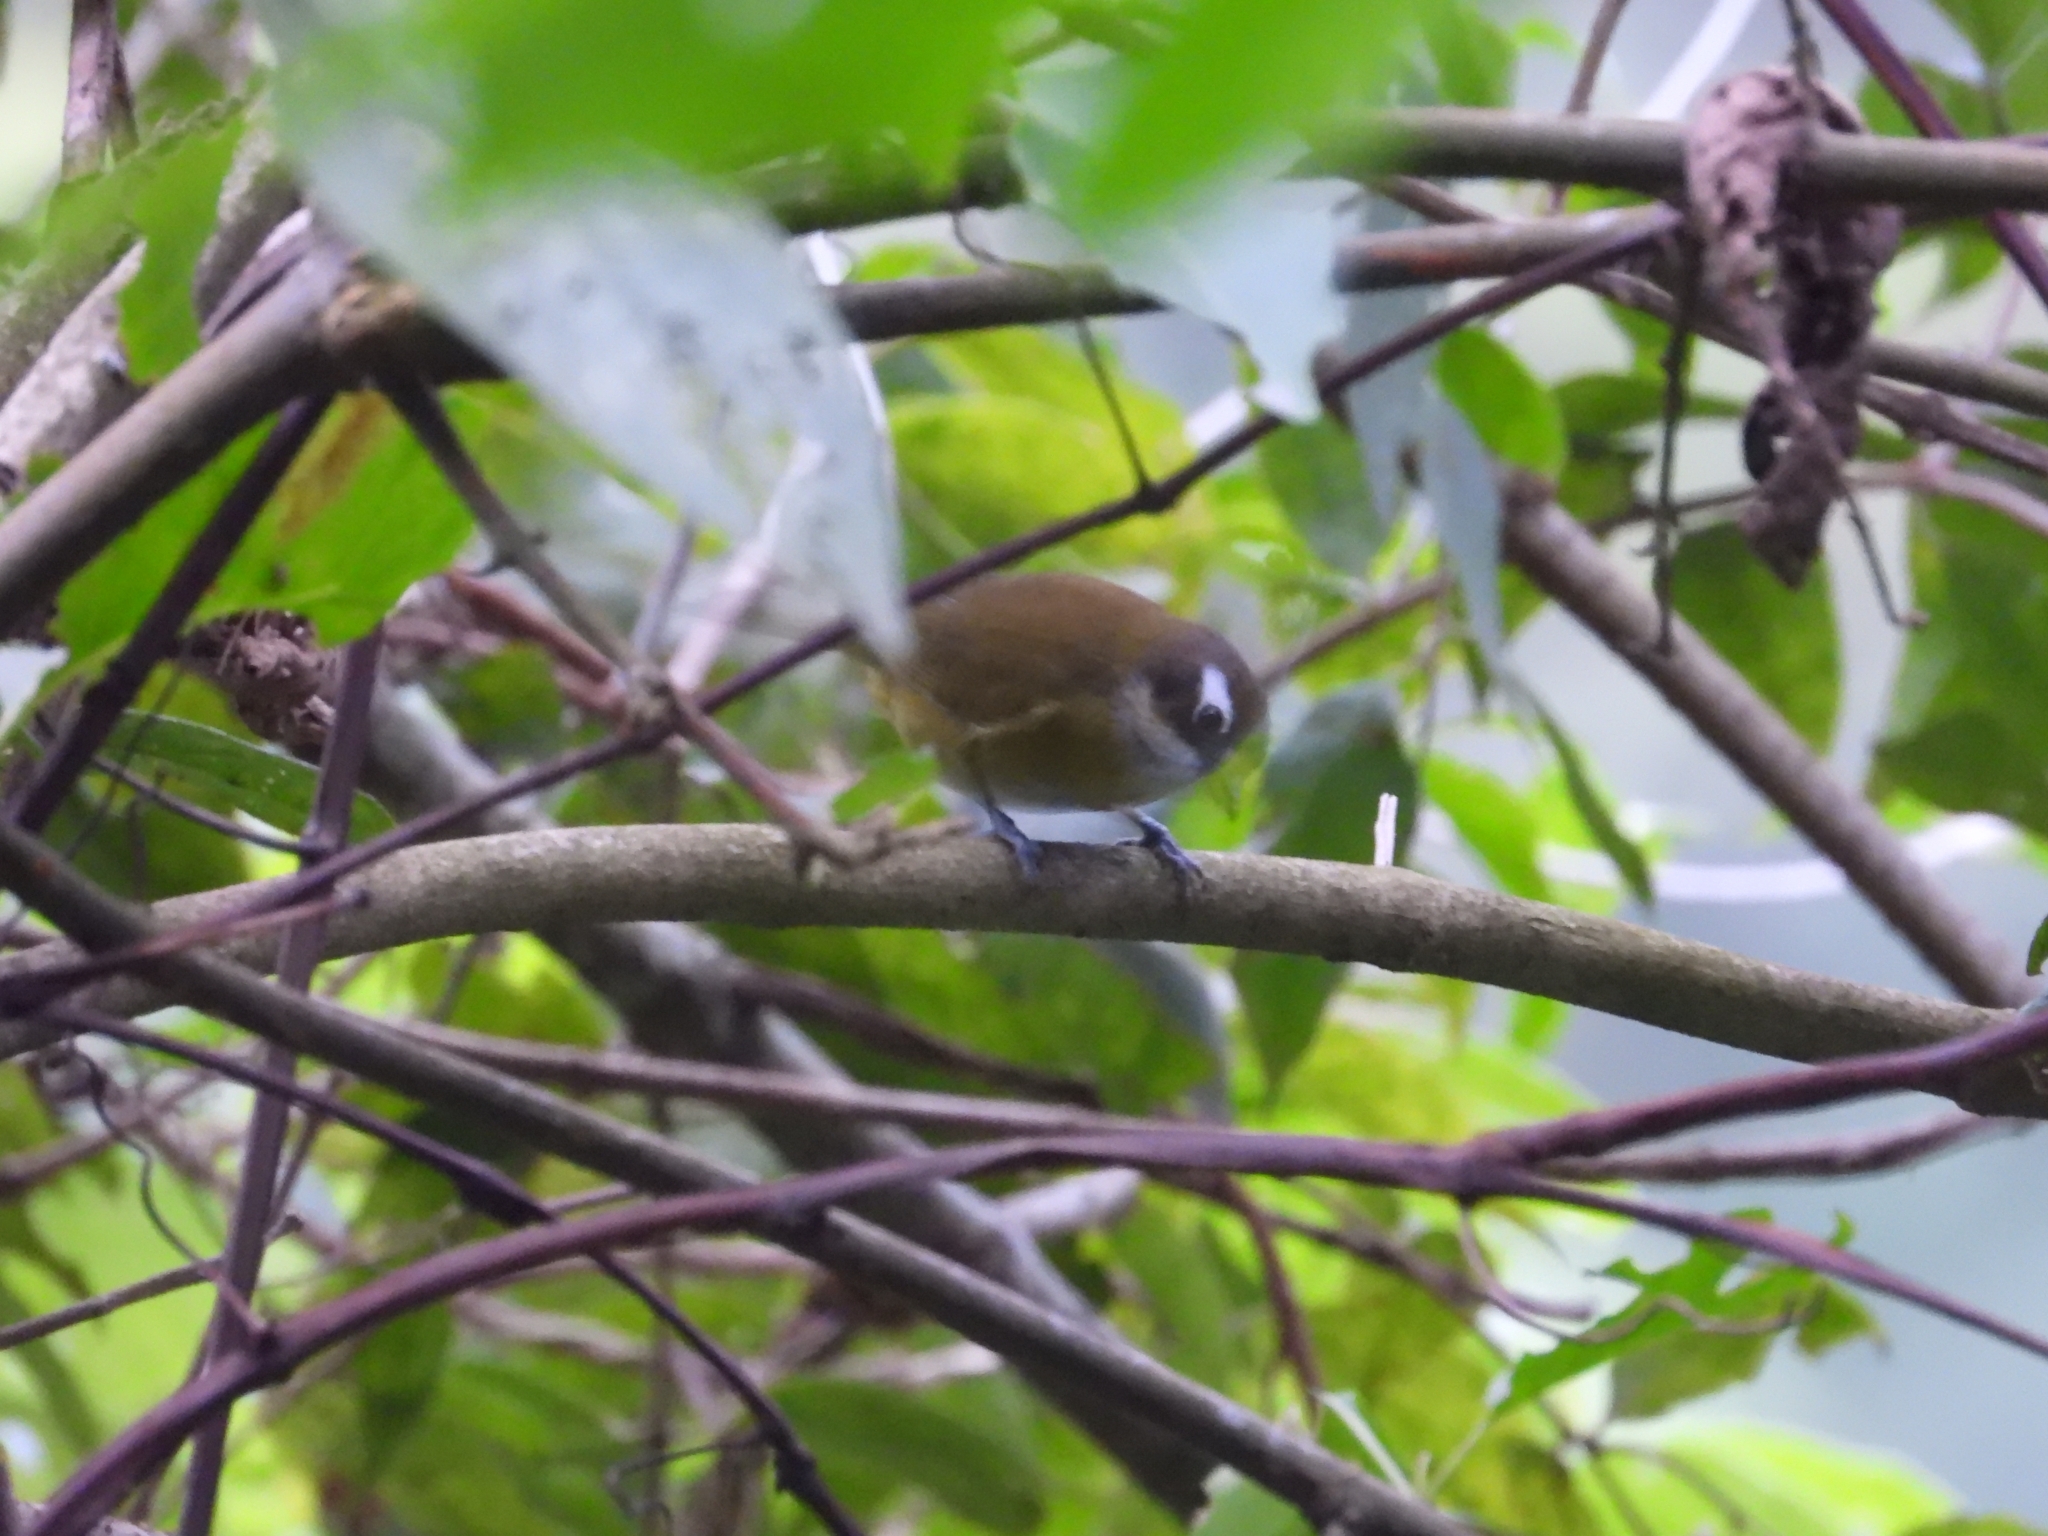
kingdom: Animalia
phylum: Chordata
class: Aves
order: Passeriformes
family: Passerellidae
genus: Chlorospingus
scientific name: Chlorospingus flavopectus
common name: Common chlorospingus
